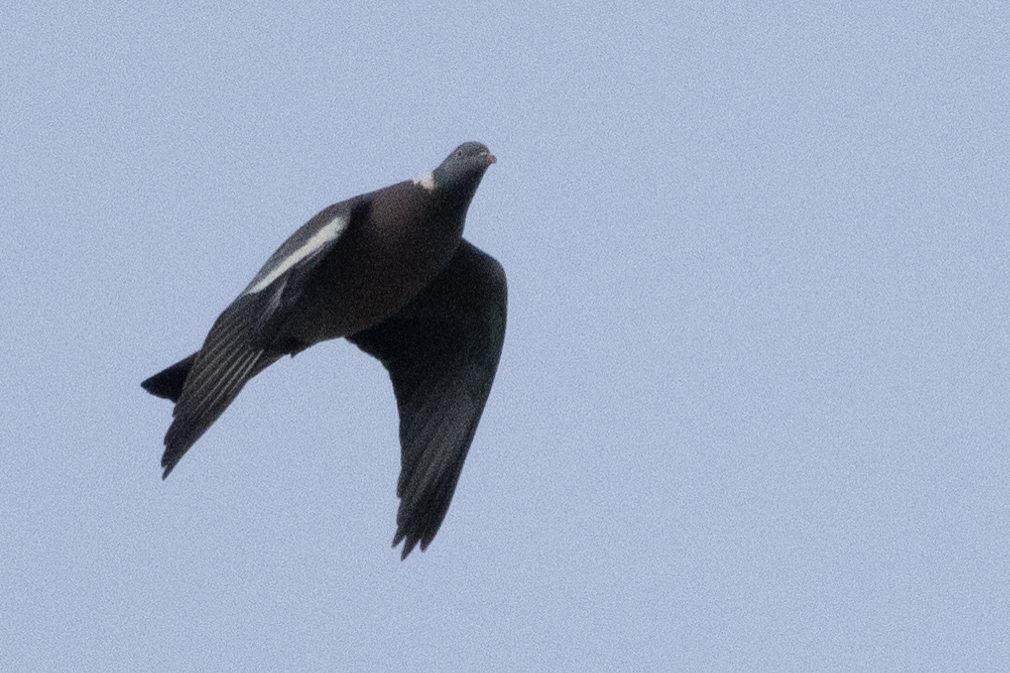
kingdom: Animalia
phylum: Chordata
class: Aves
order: Columbiformes
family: Columbidae
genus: Columba
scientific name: Columba palumbus
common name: Common wood pigeon
